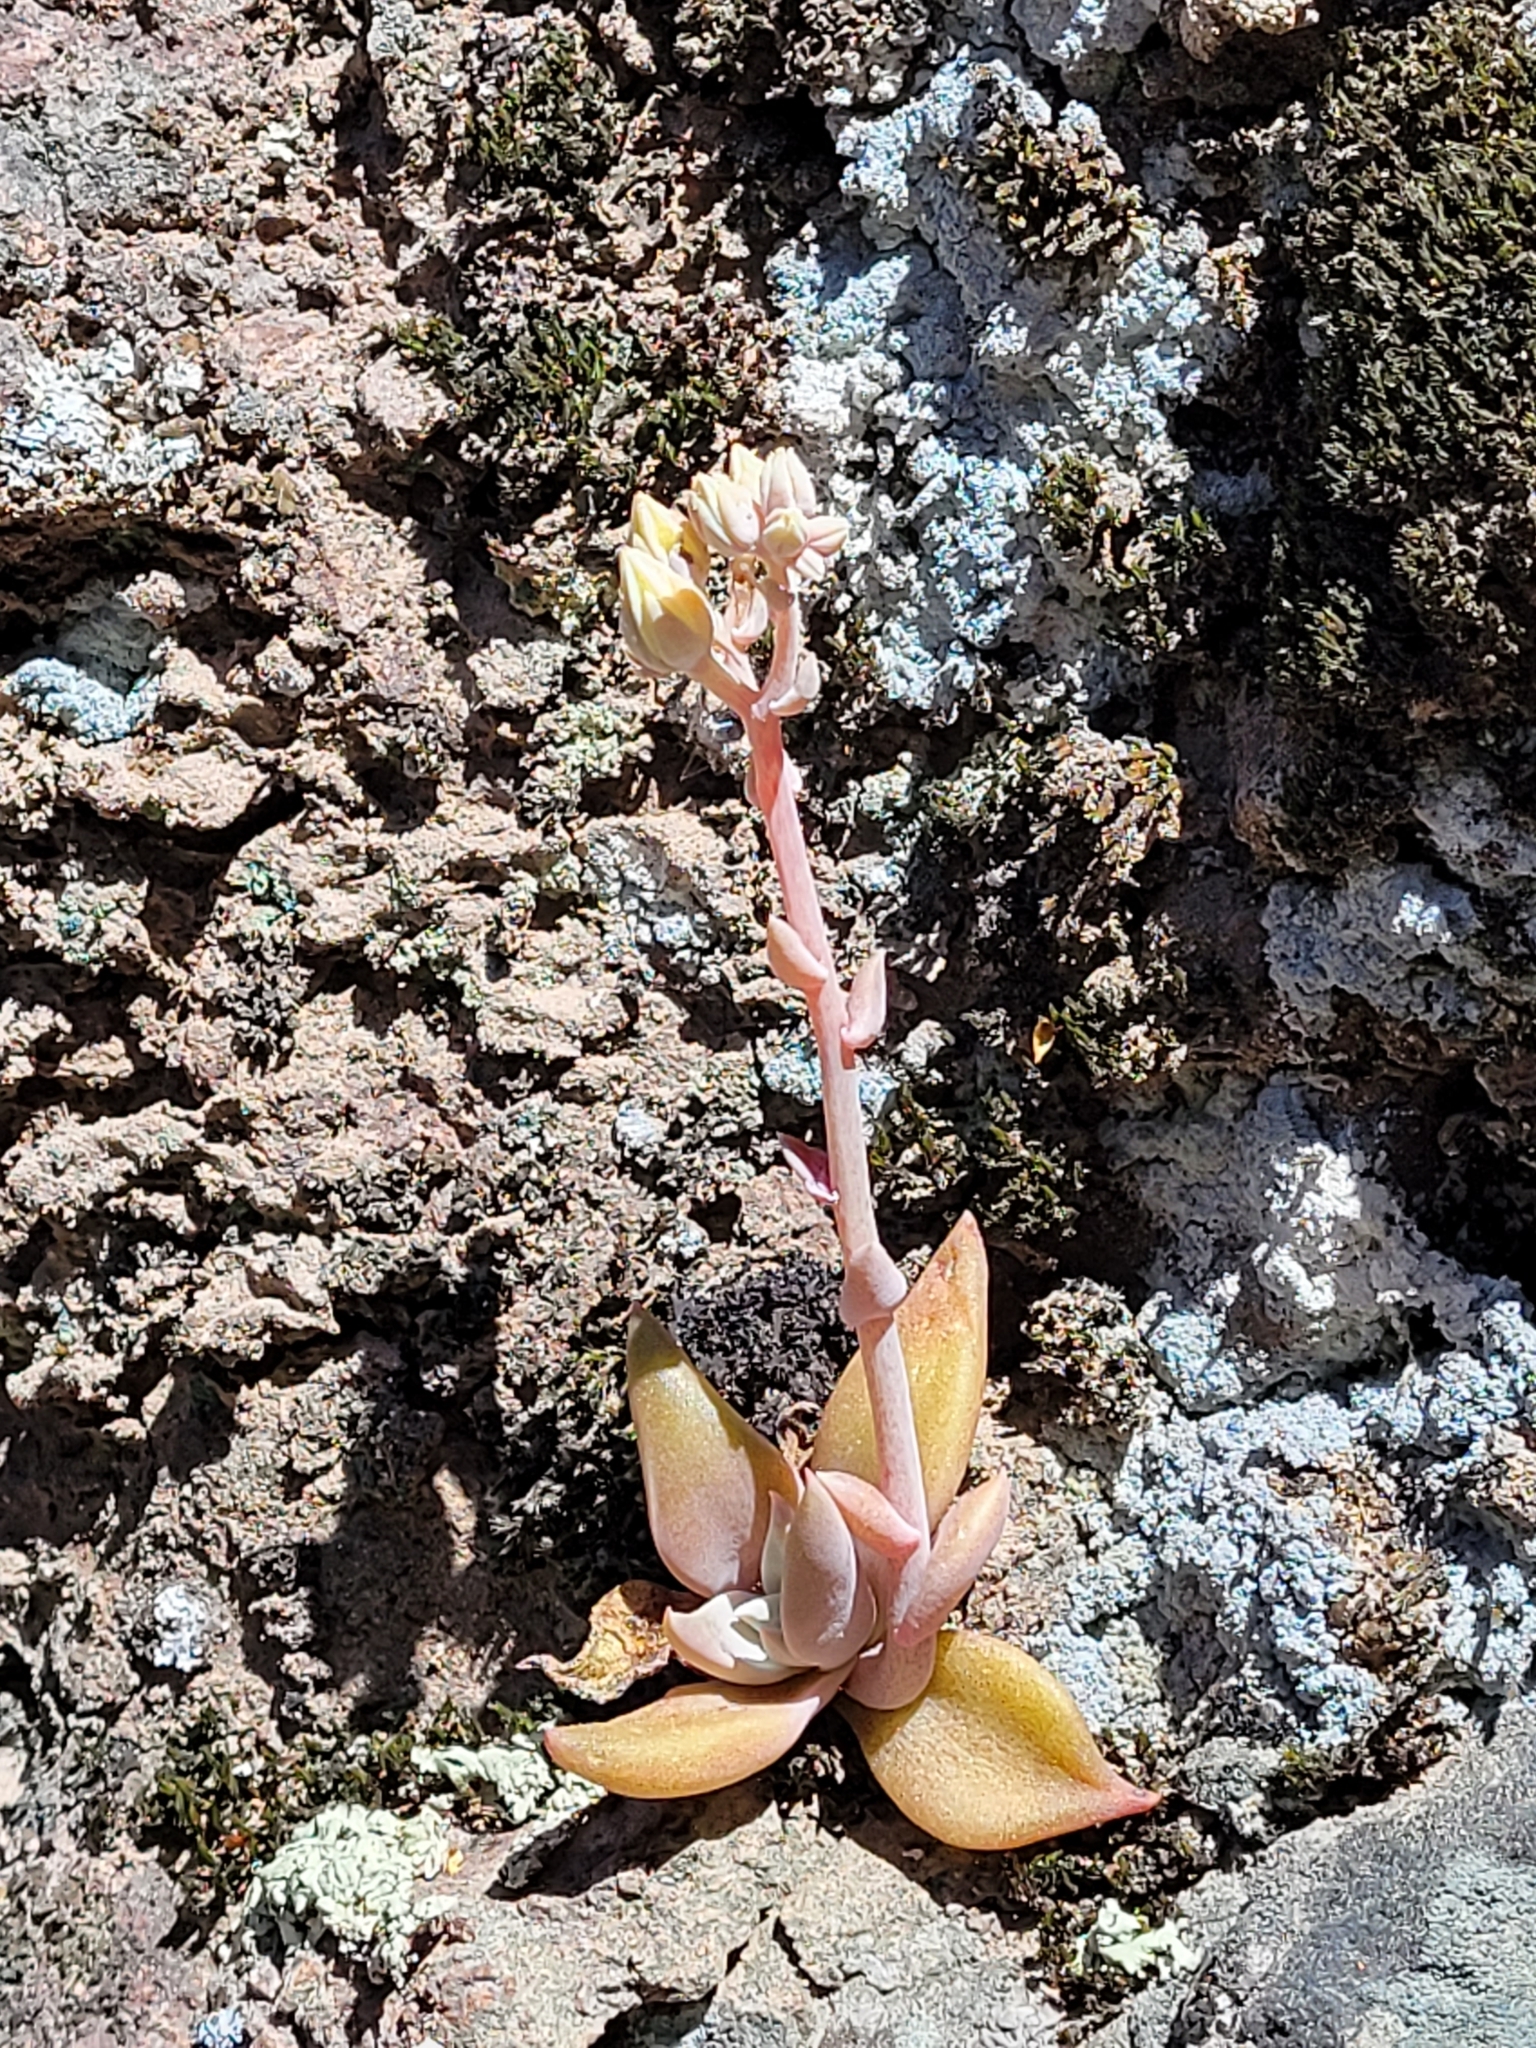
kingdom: Plantae
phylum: Tracheophyta
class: Magnoliopsida
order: Saxifragales
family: Crassulaceae
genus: Dudleya
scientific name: Dudleya cymosa
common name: Canyon dudleya
